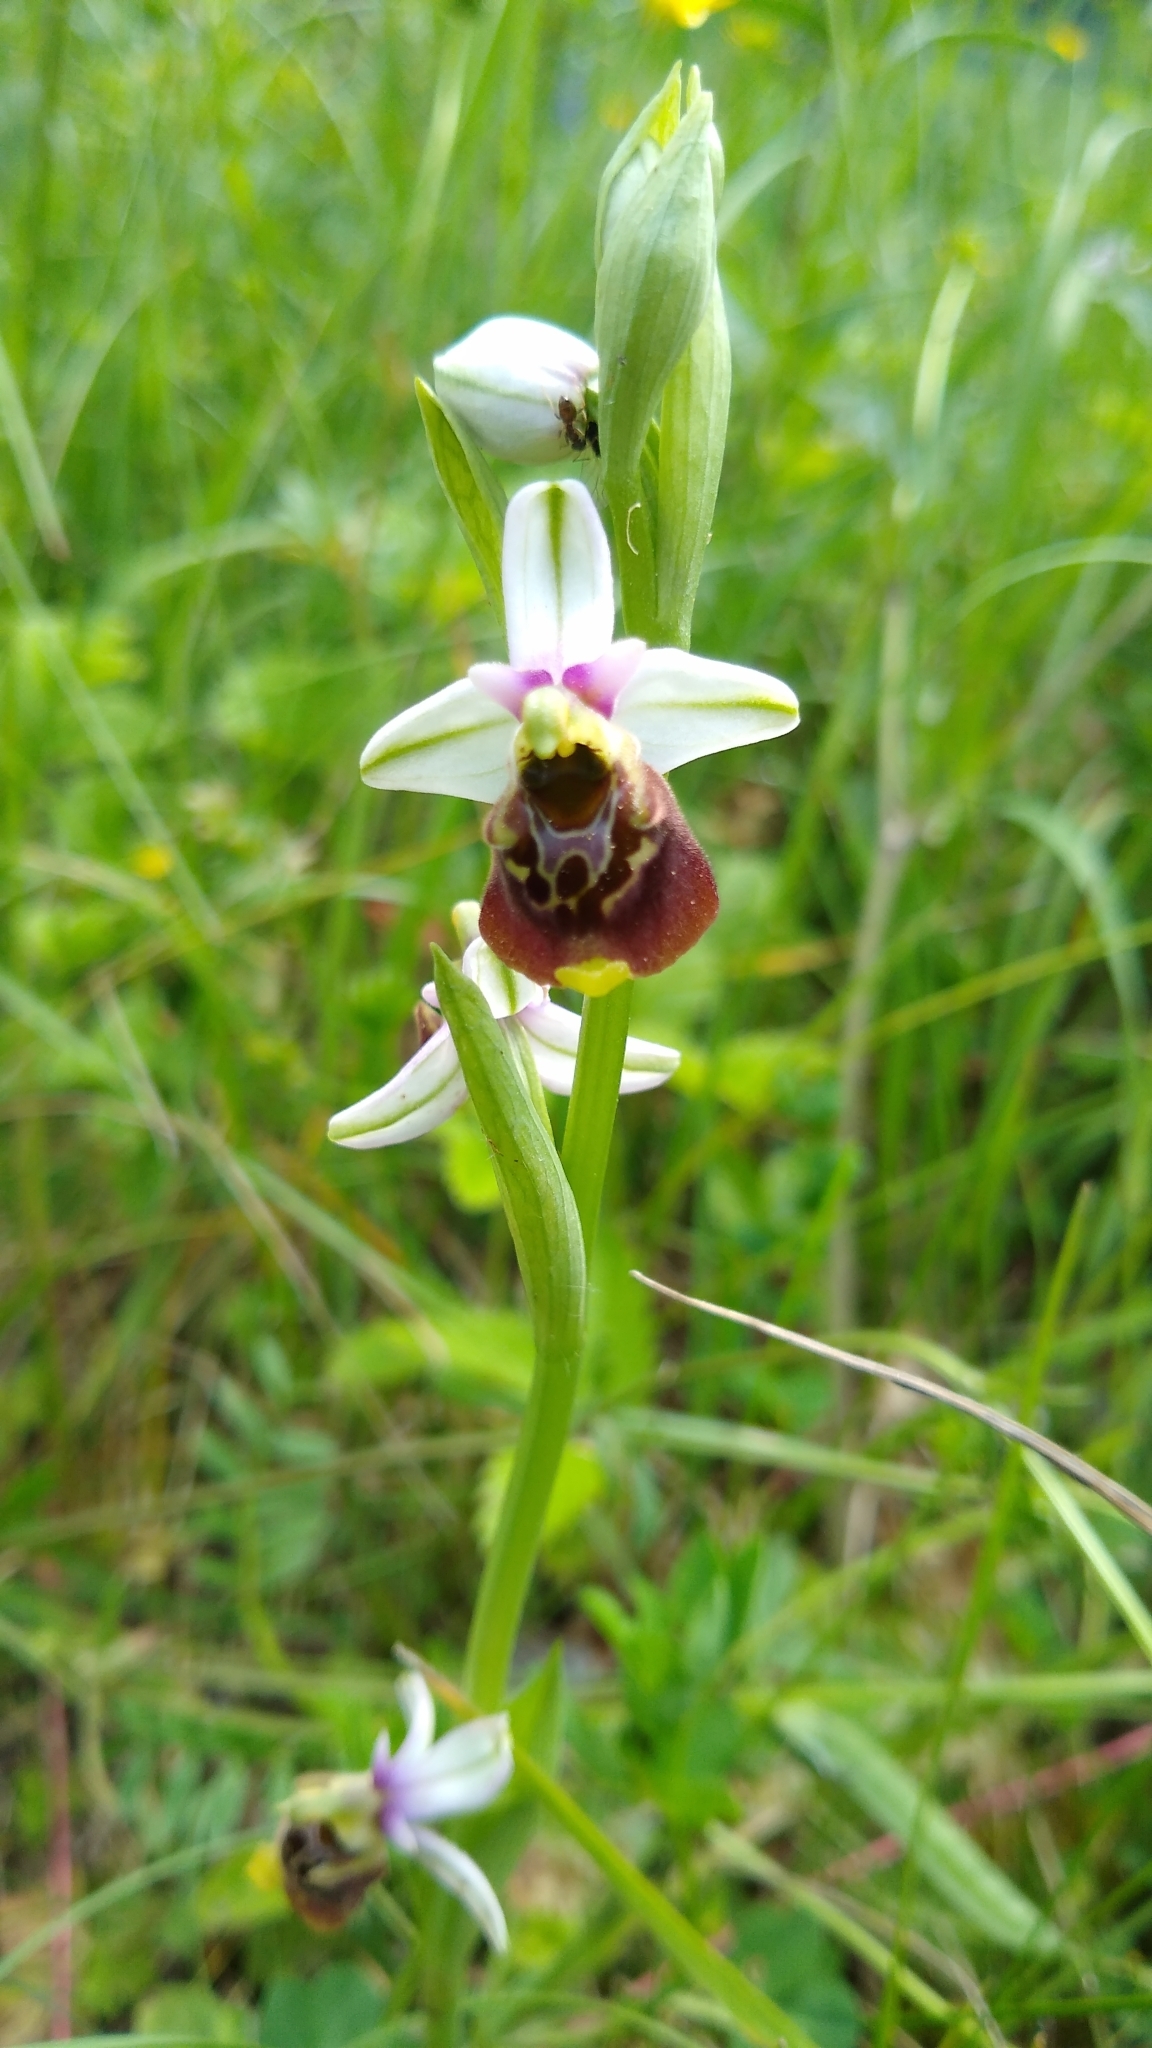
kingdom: Plantae
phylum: Tracheophyta
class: Liliopsida
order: Asparagales
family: Orchidaceae
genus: Ophrys
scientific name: Ophrys holosericea
